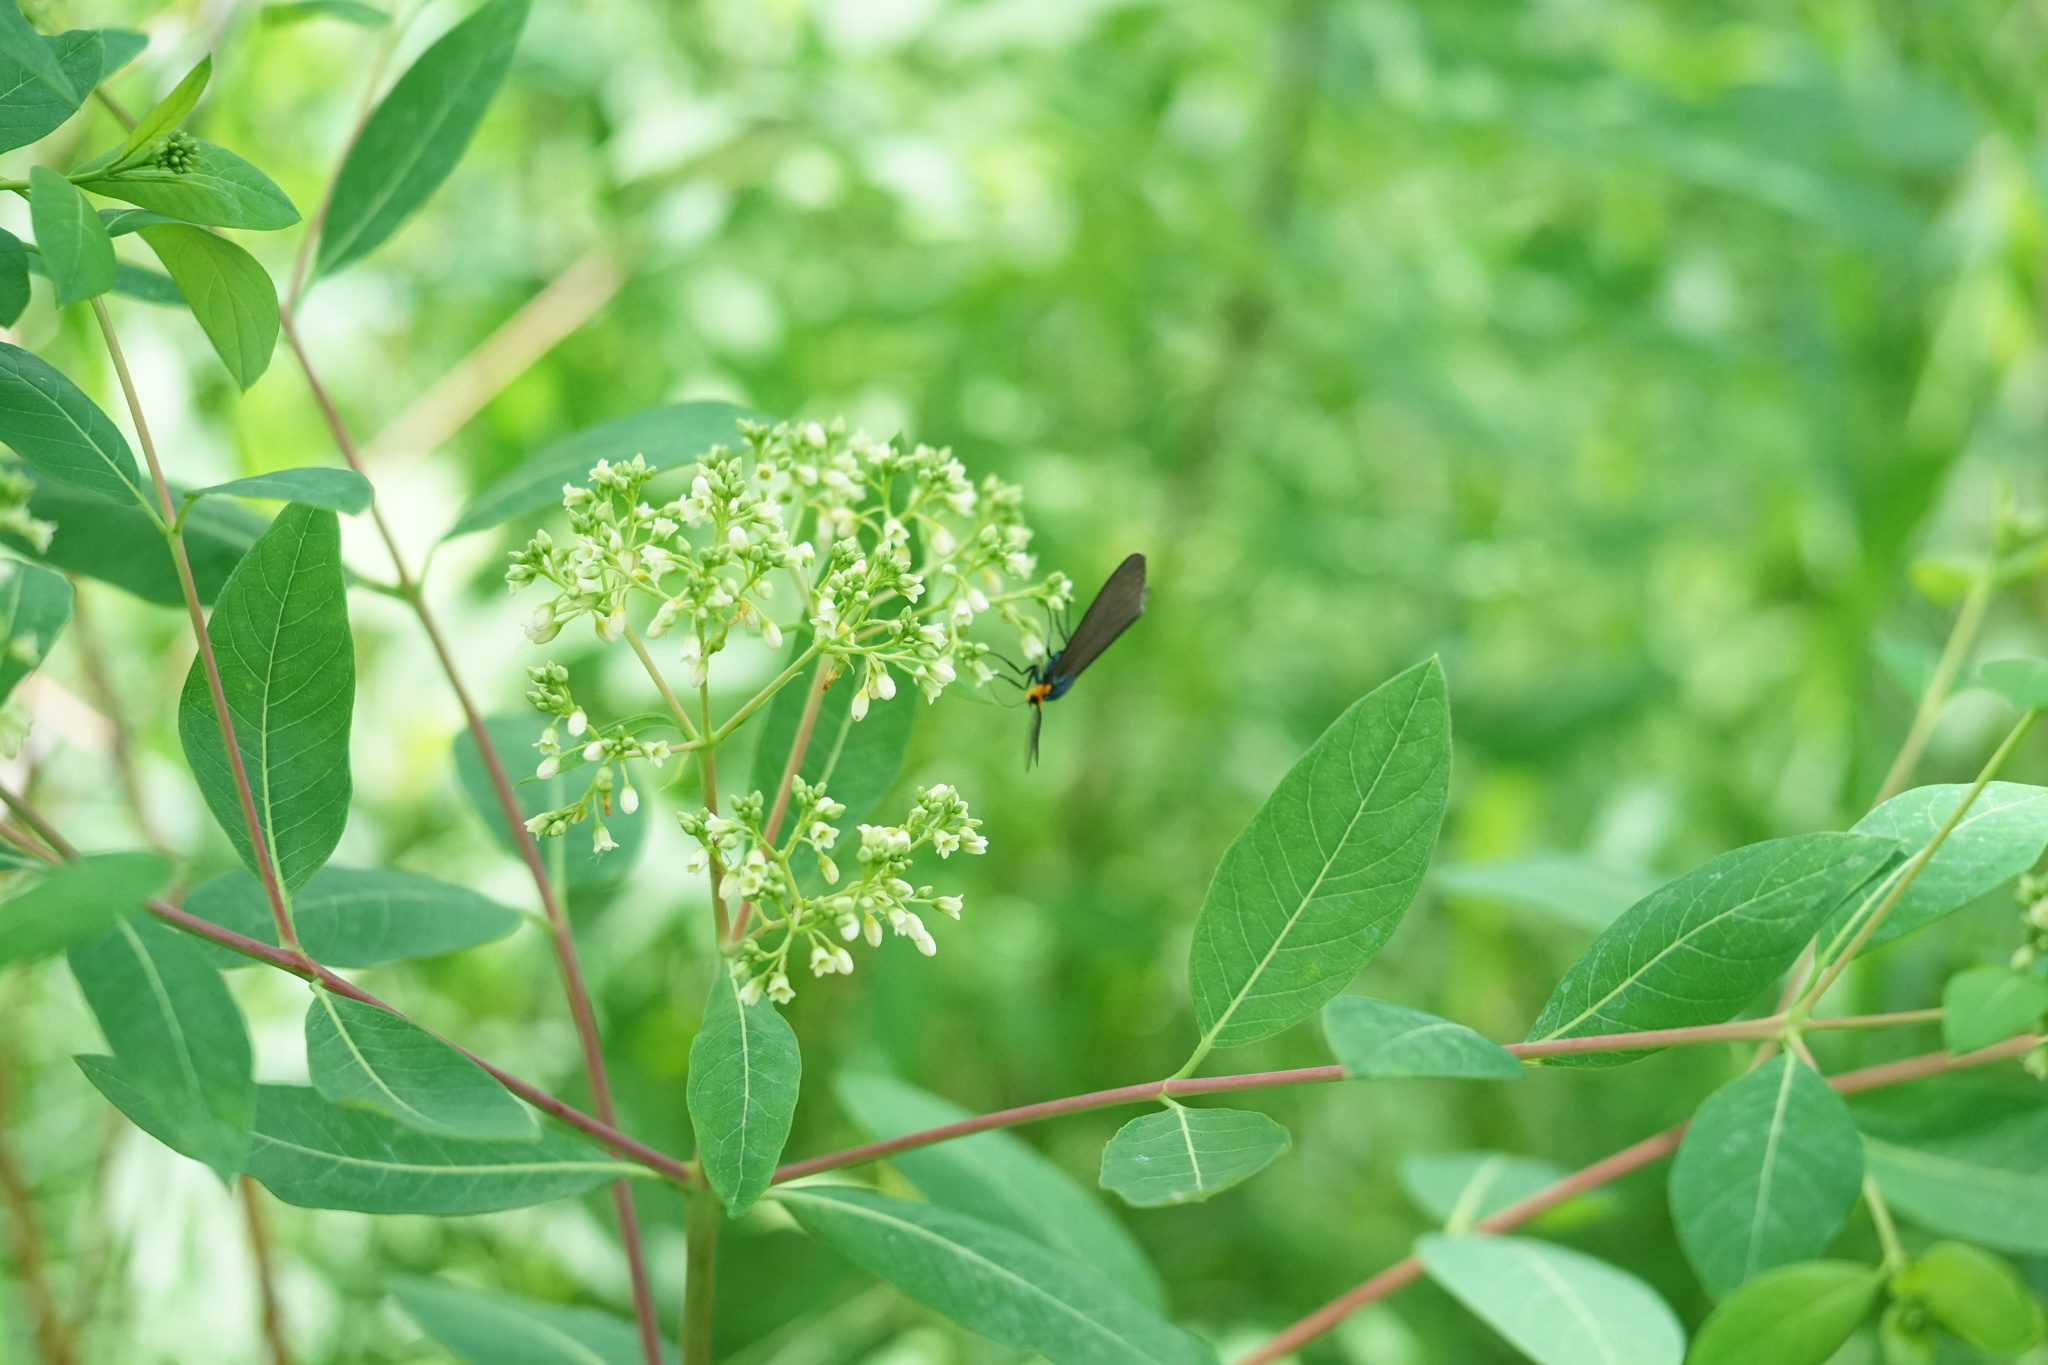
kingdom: Animalia
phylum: Arthropoda
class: Insecta
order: Lepidoptera
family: Erebidae
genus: Ctenucha
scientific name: Ctenucha virginica
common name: Virginia ctenucha moth
